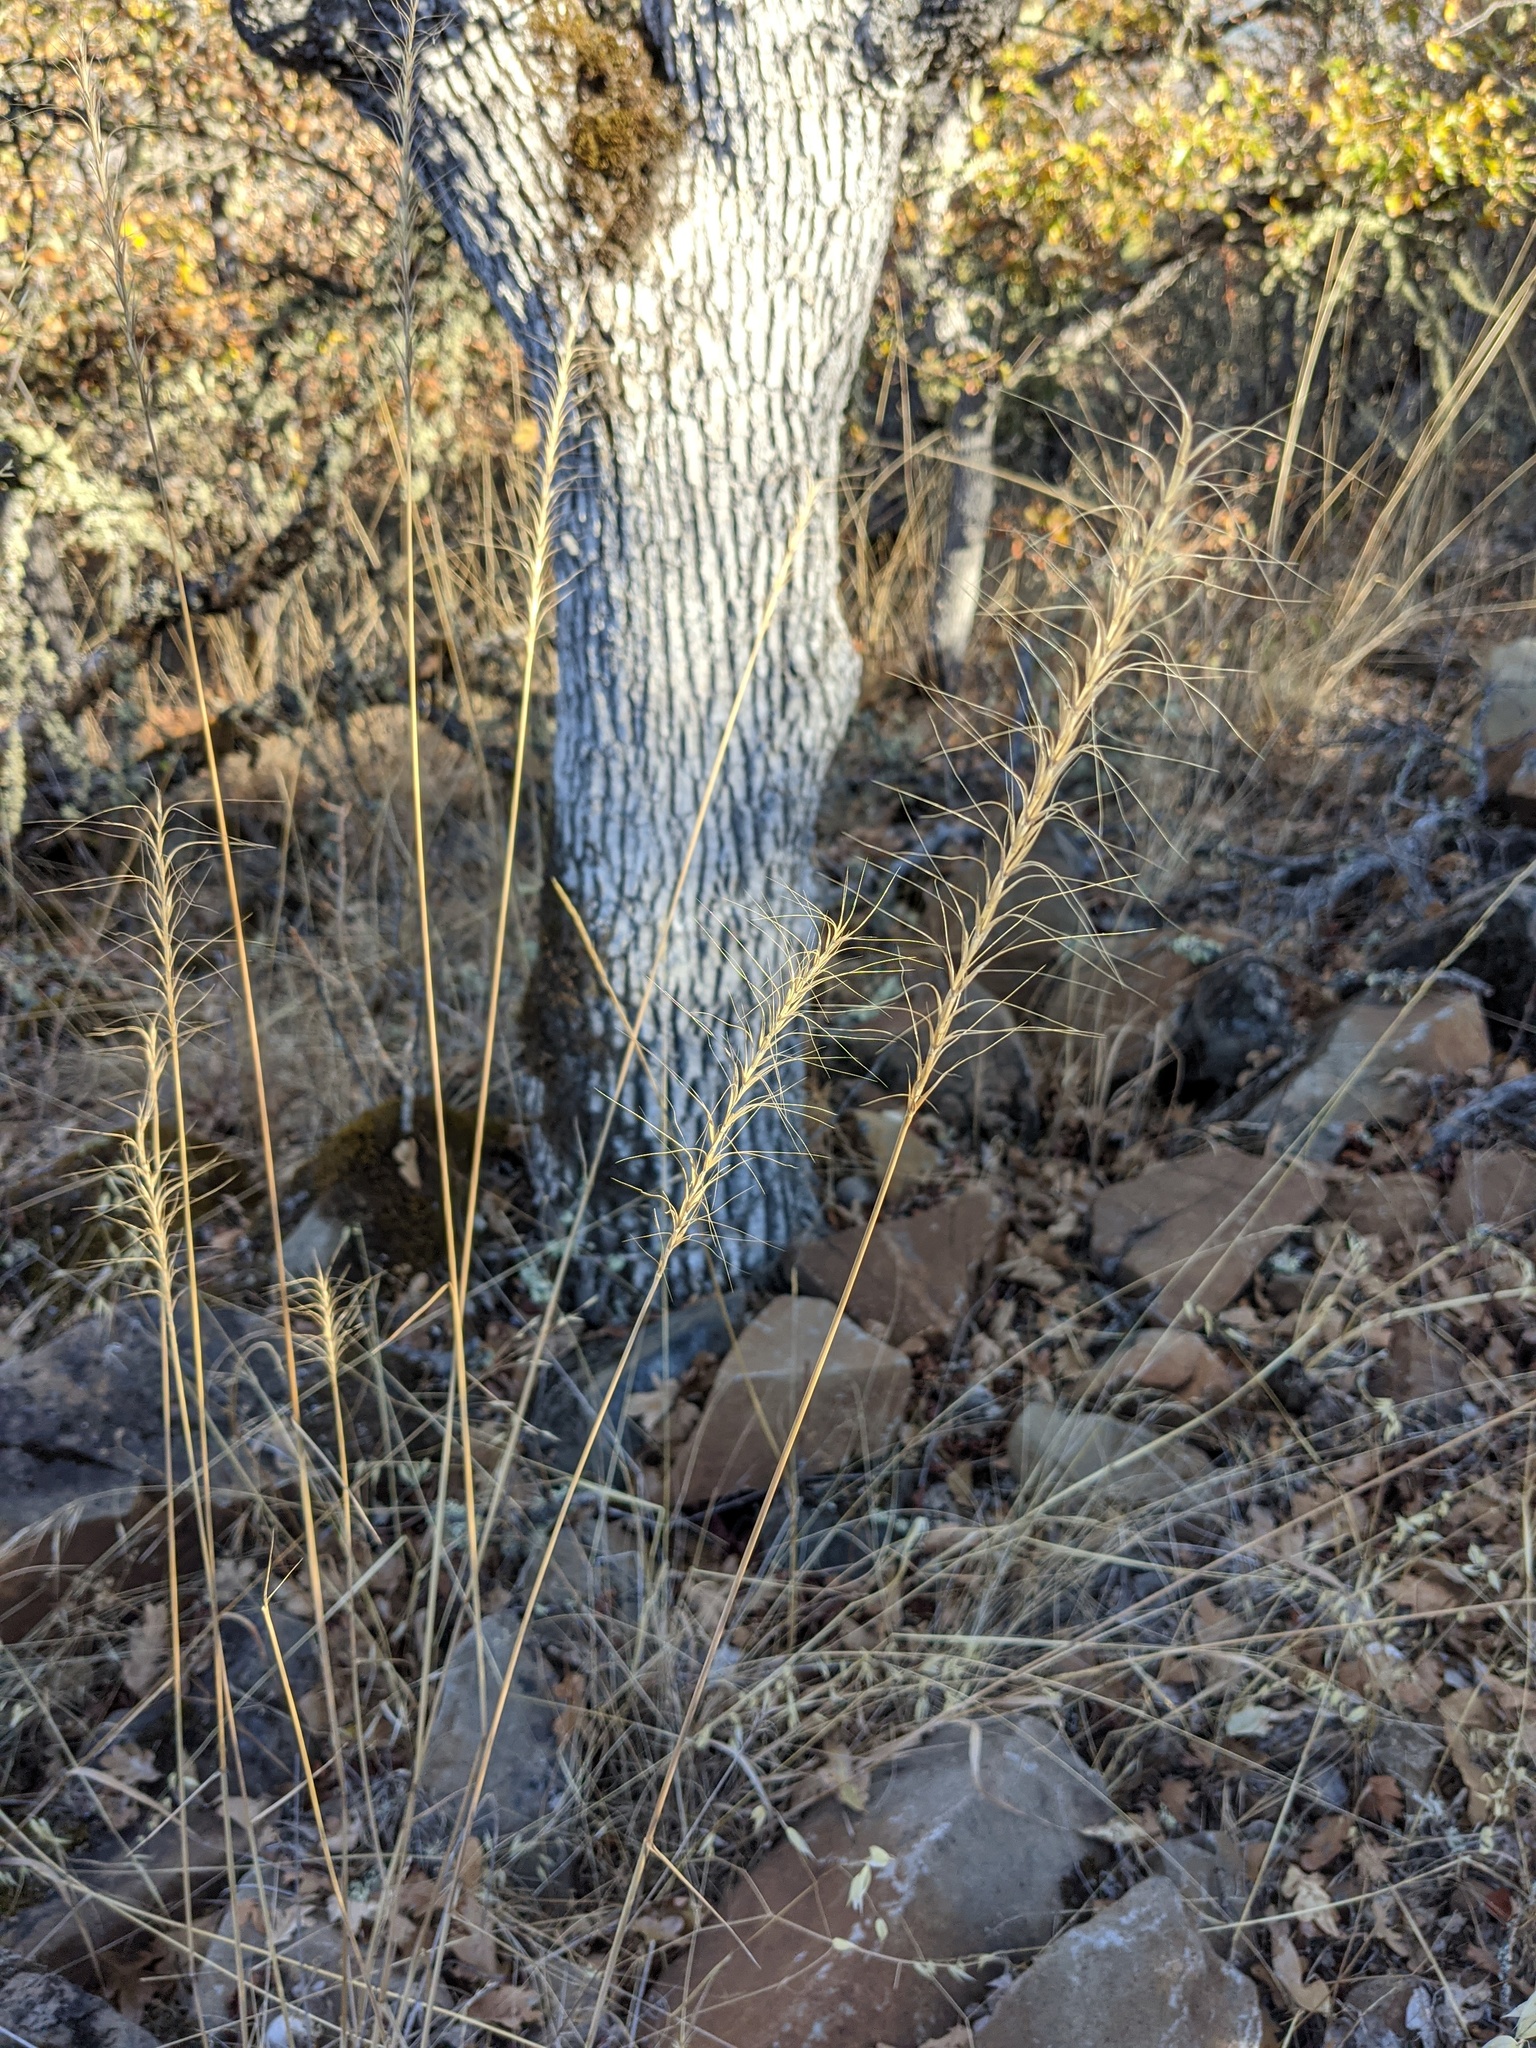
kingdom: Plantae
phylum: Tracheophyta
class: Liliopsida
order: Poales
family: Poaceae
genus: Elymus
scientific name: Elymus elymoides
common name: Bottlebrush squirreltail
